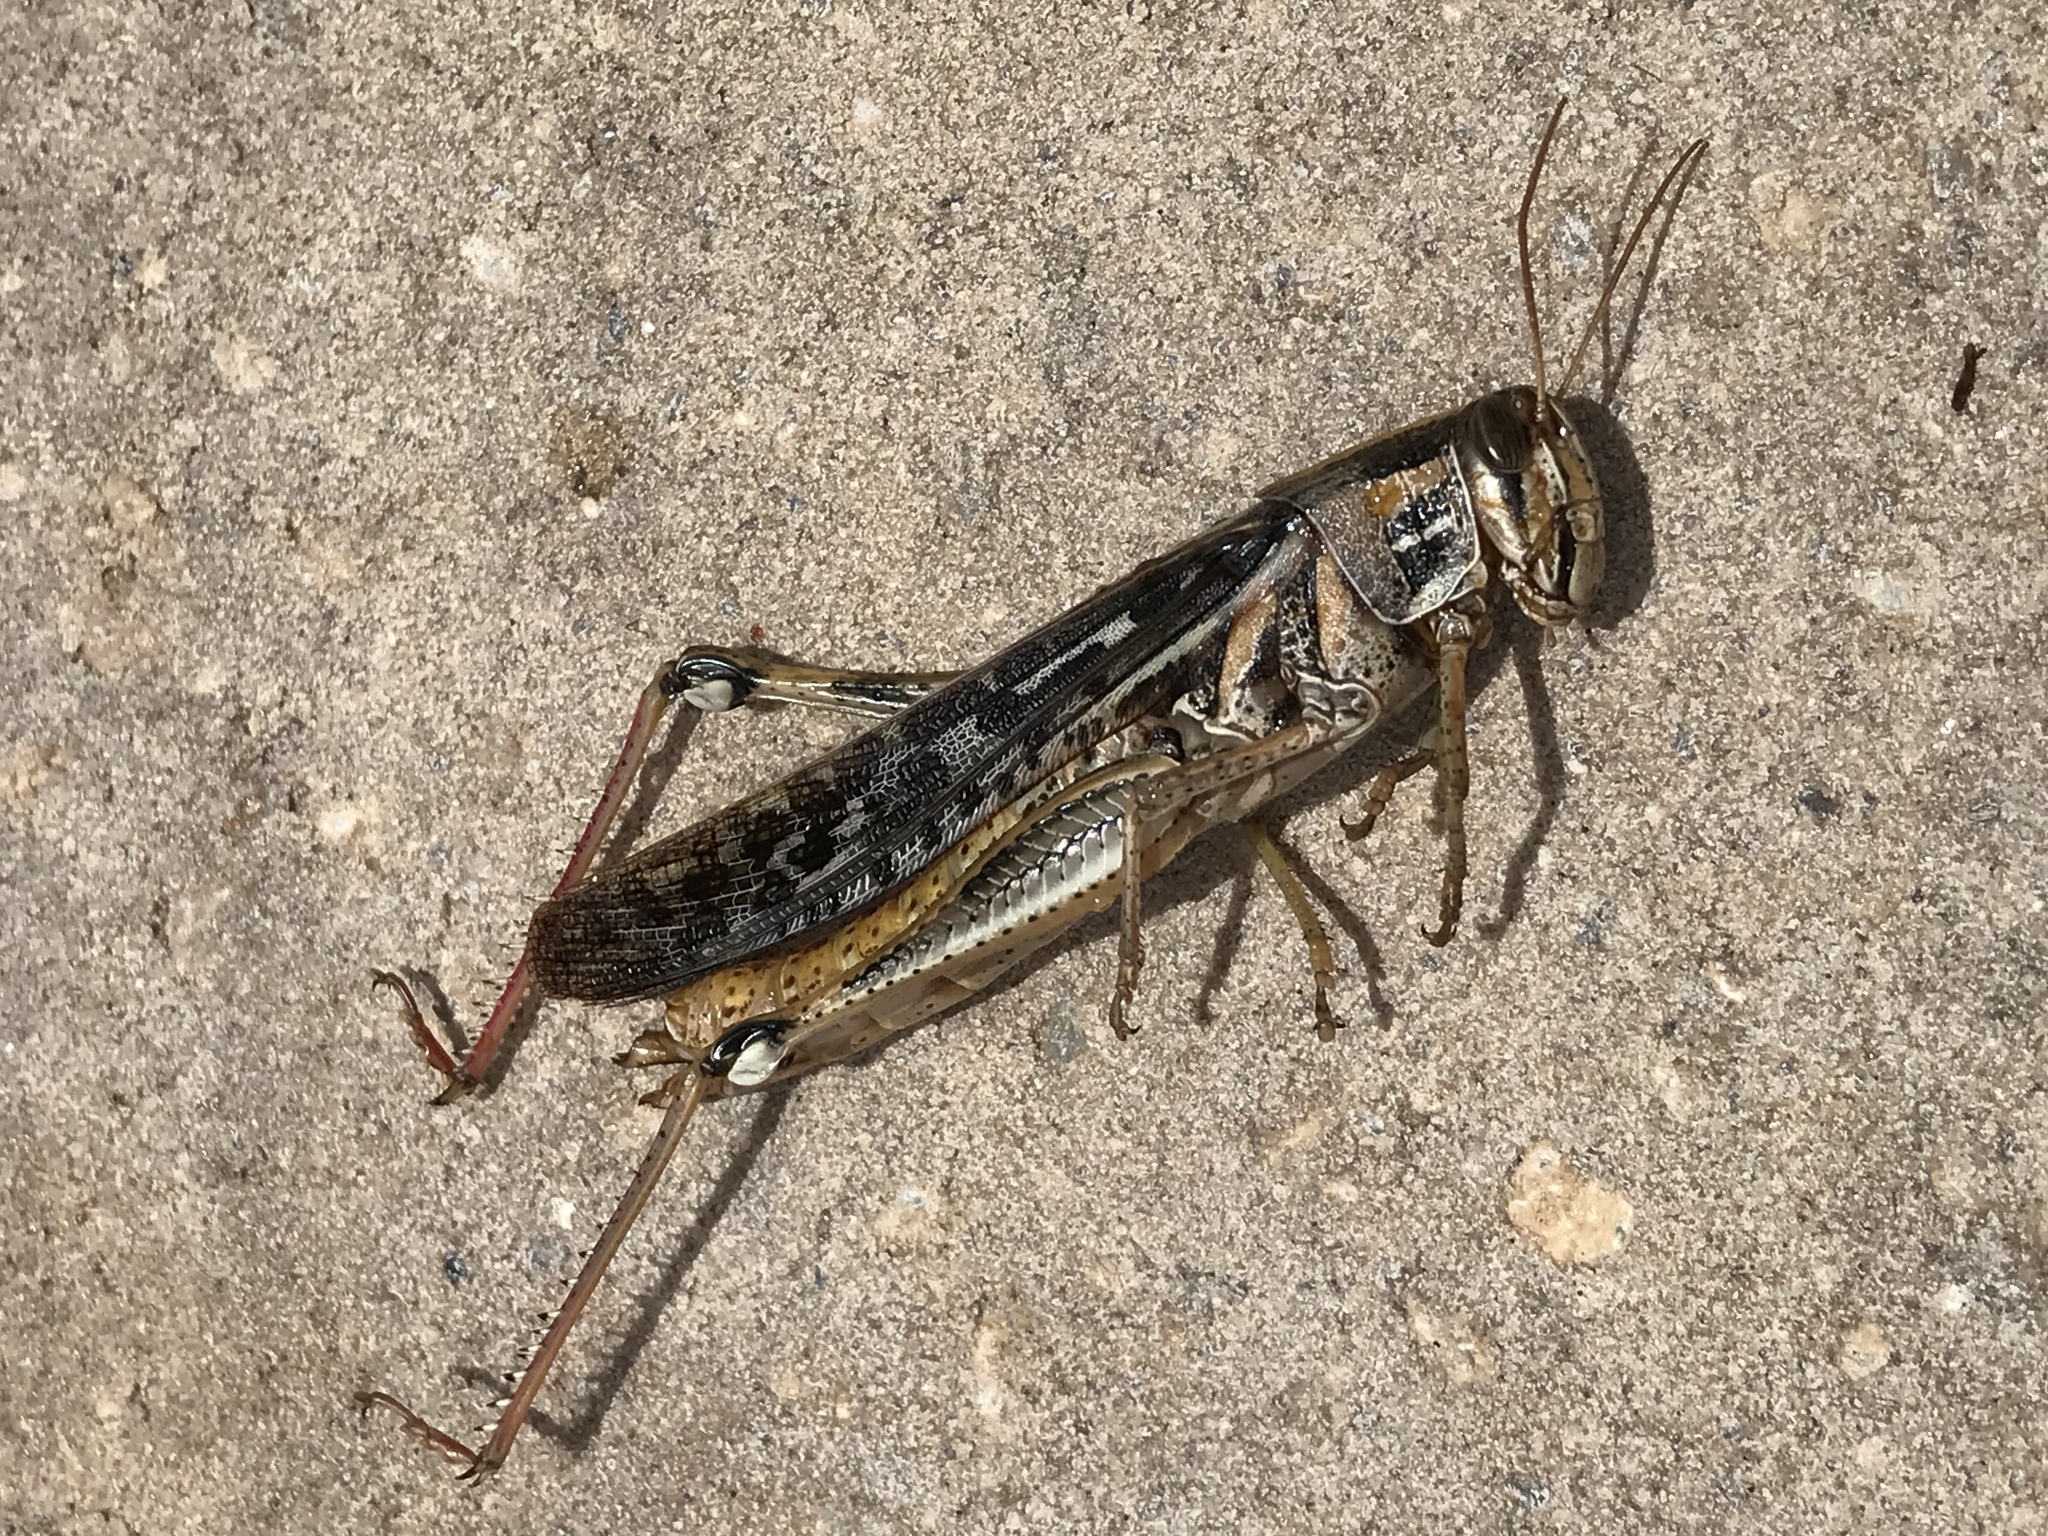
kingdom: Animalia
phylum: Arthropoda
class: Insecta
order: Orthoptera
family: Acrididae
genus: Schistocerca
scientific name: Schistocerca americana
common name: American bird locust
